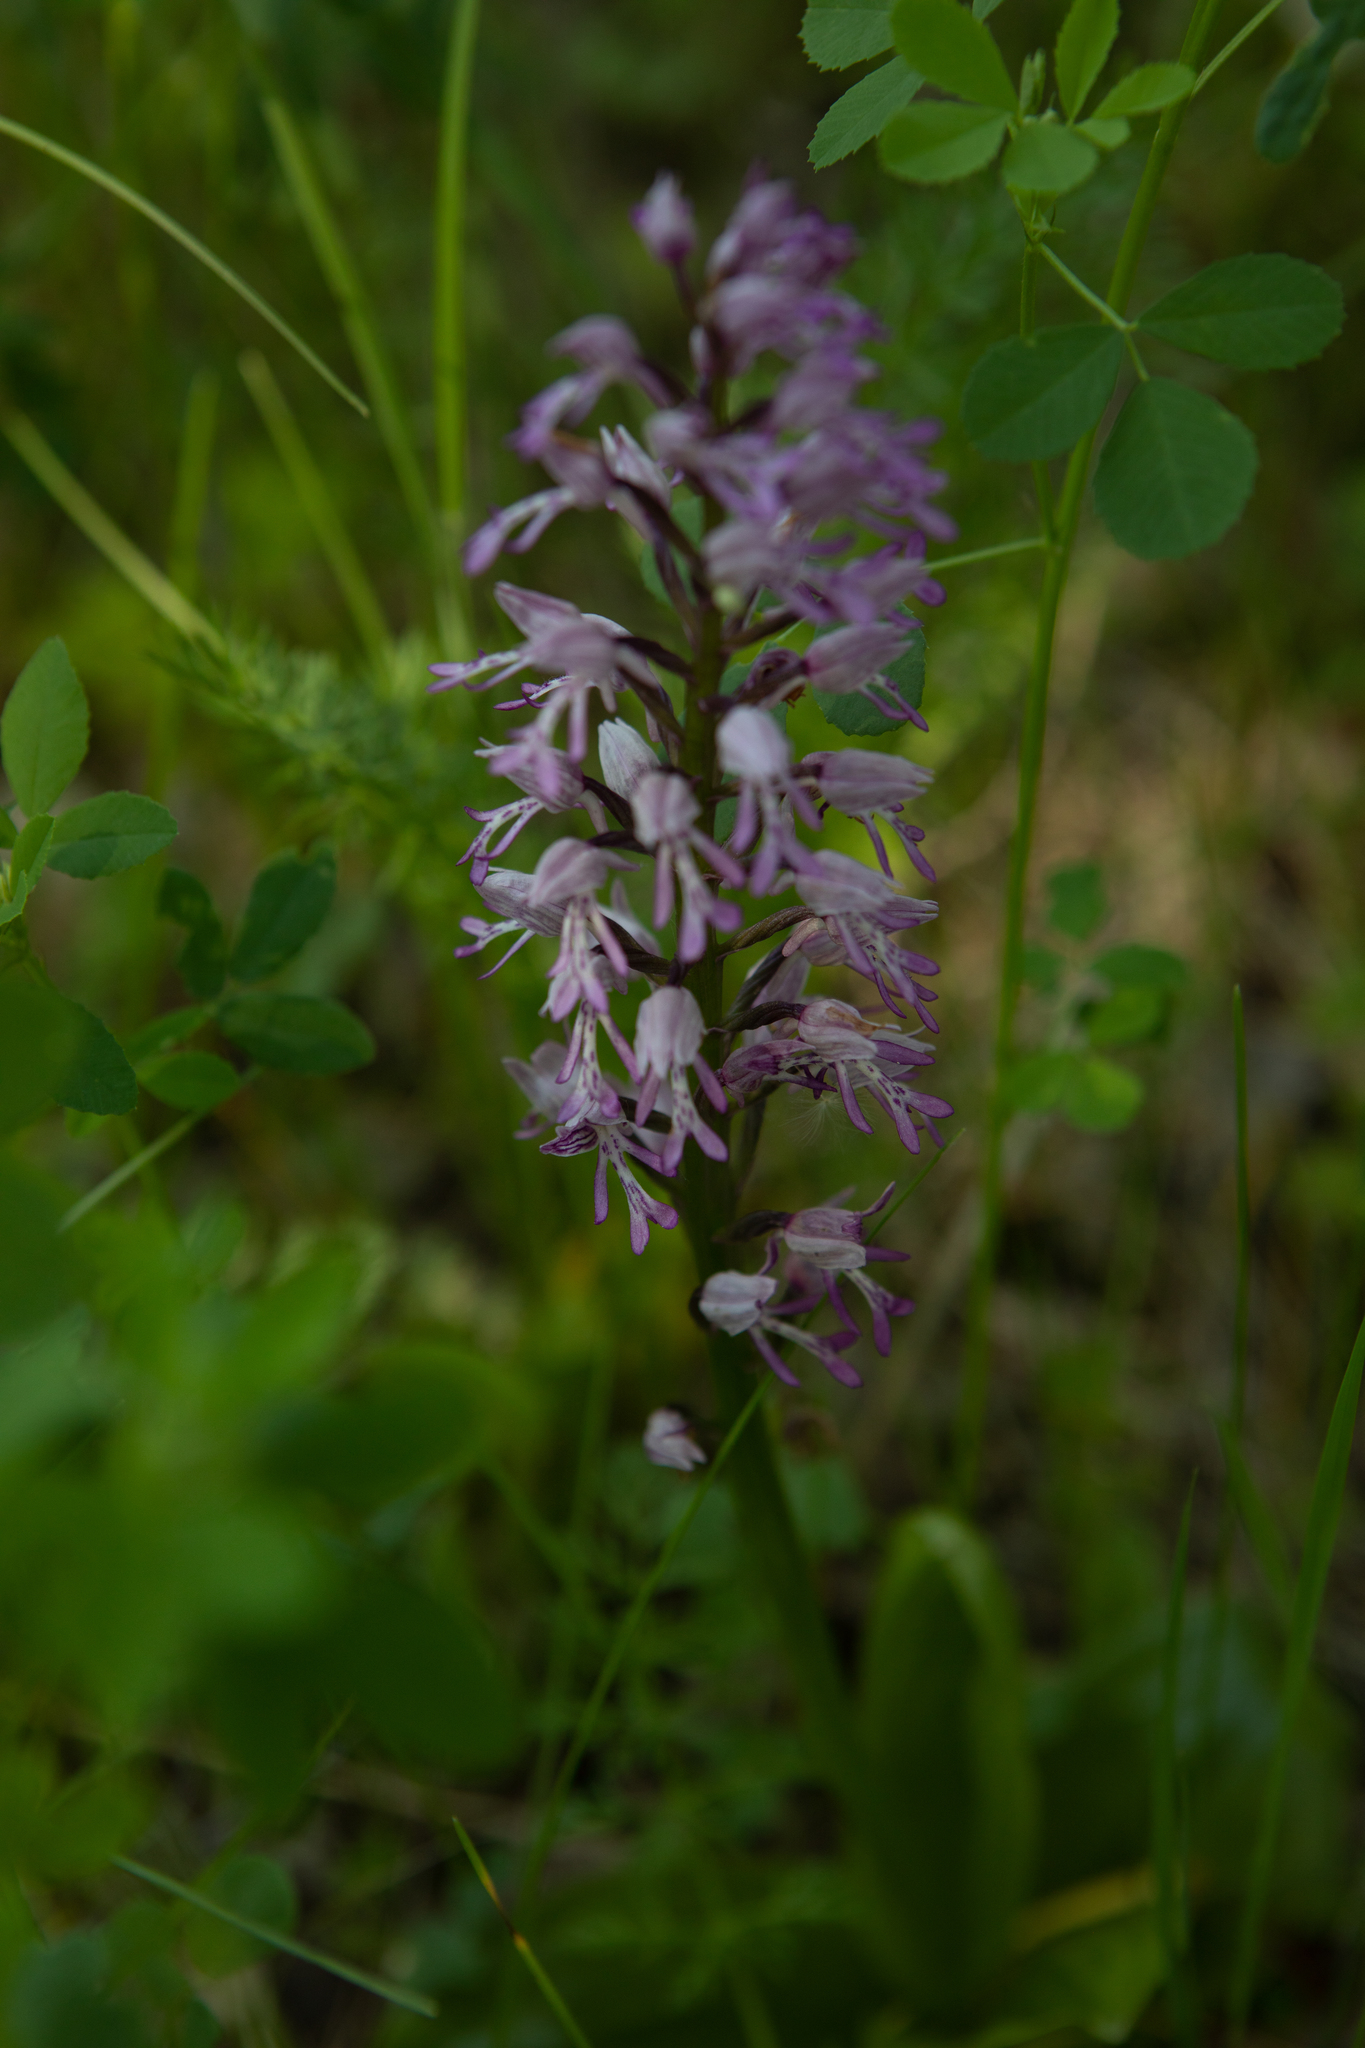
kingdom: Plantae
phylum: Tracheophyta
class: Liliopsida
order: Asparagales
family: Orchidaceae
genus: Orchis
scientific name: Orchis militaris
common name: Military orchid
